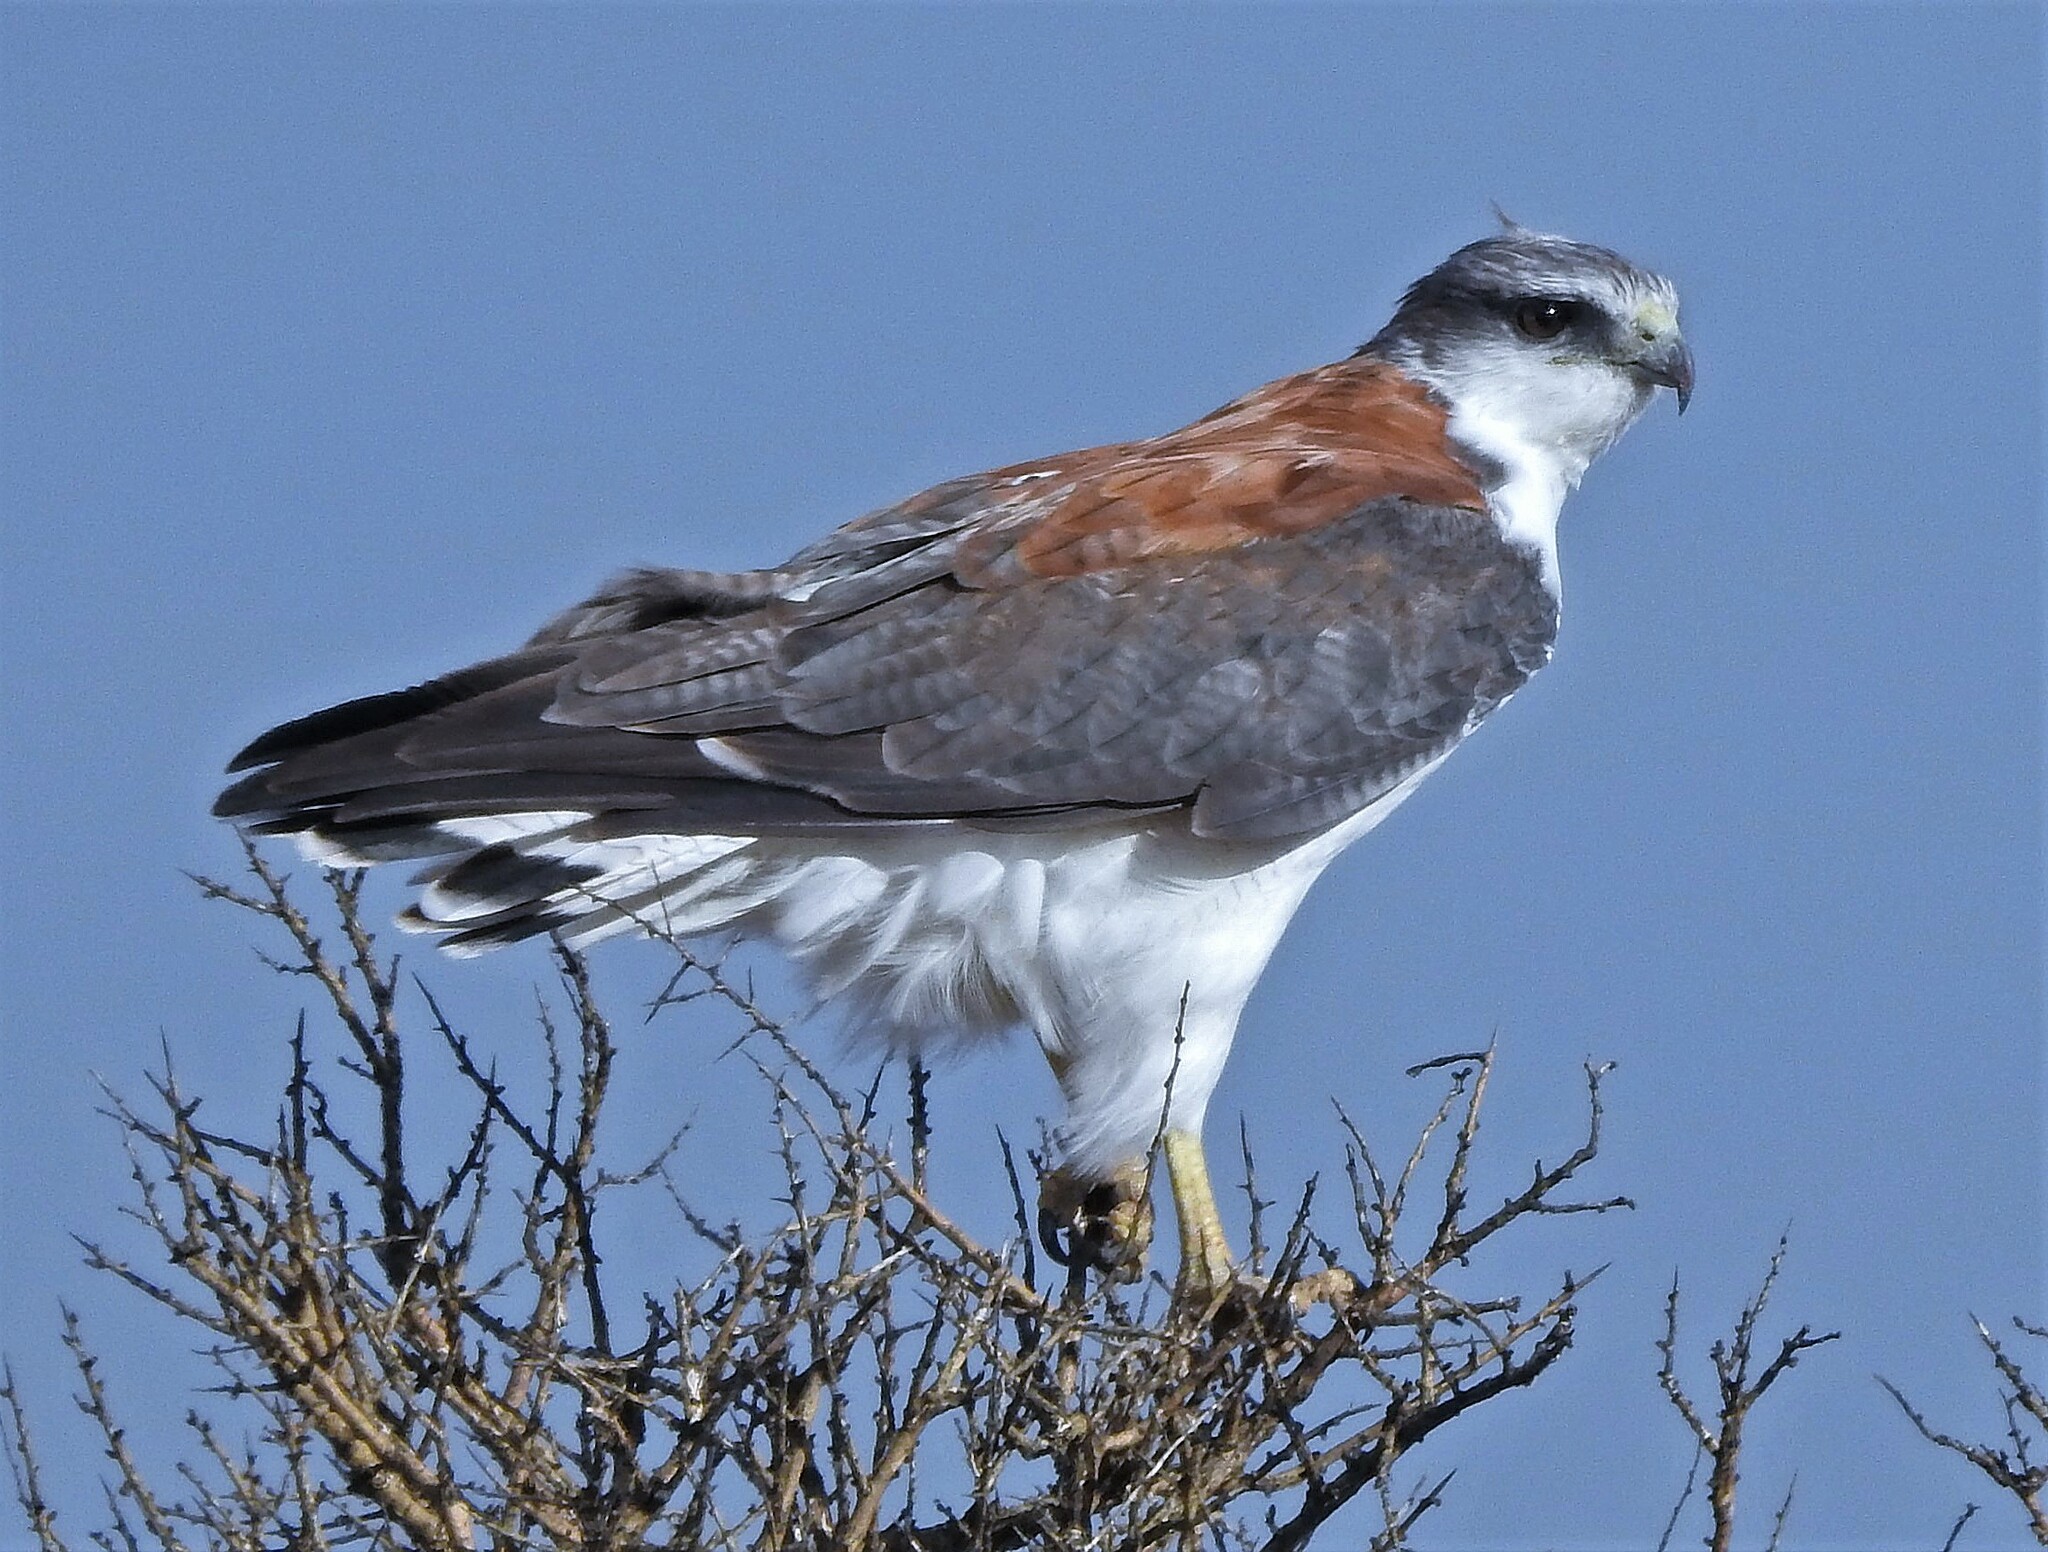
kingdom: Animalia
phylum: Chordata
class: Aves
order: Accipitriformes
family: Accipitridae
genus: Buteo
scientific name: Buteo polyosoma
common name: Variable hawk
